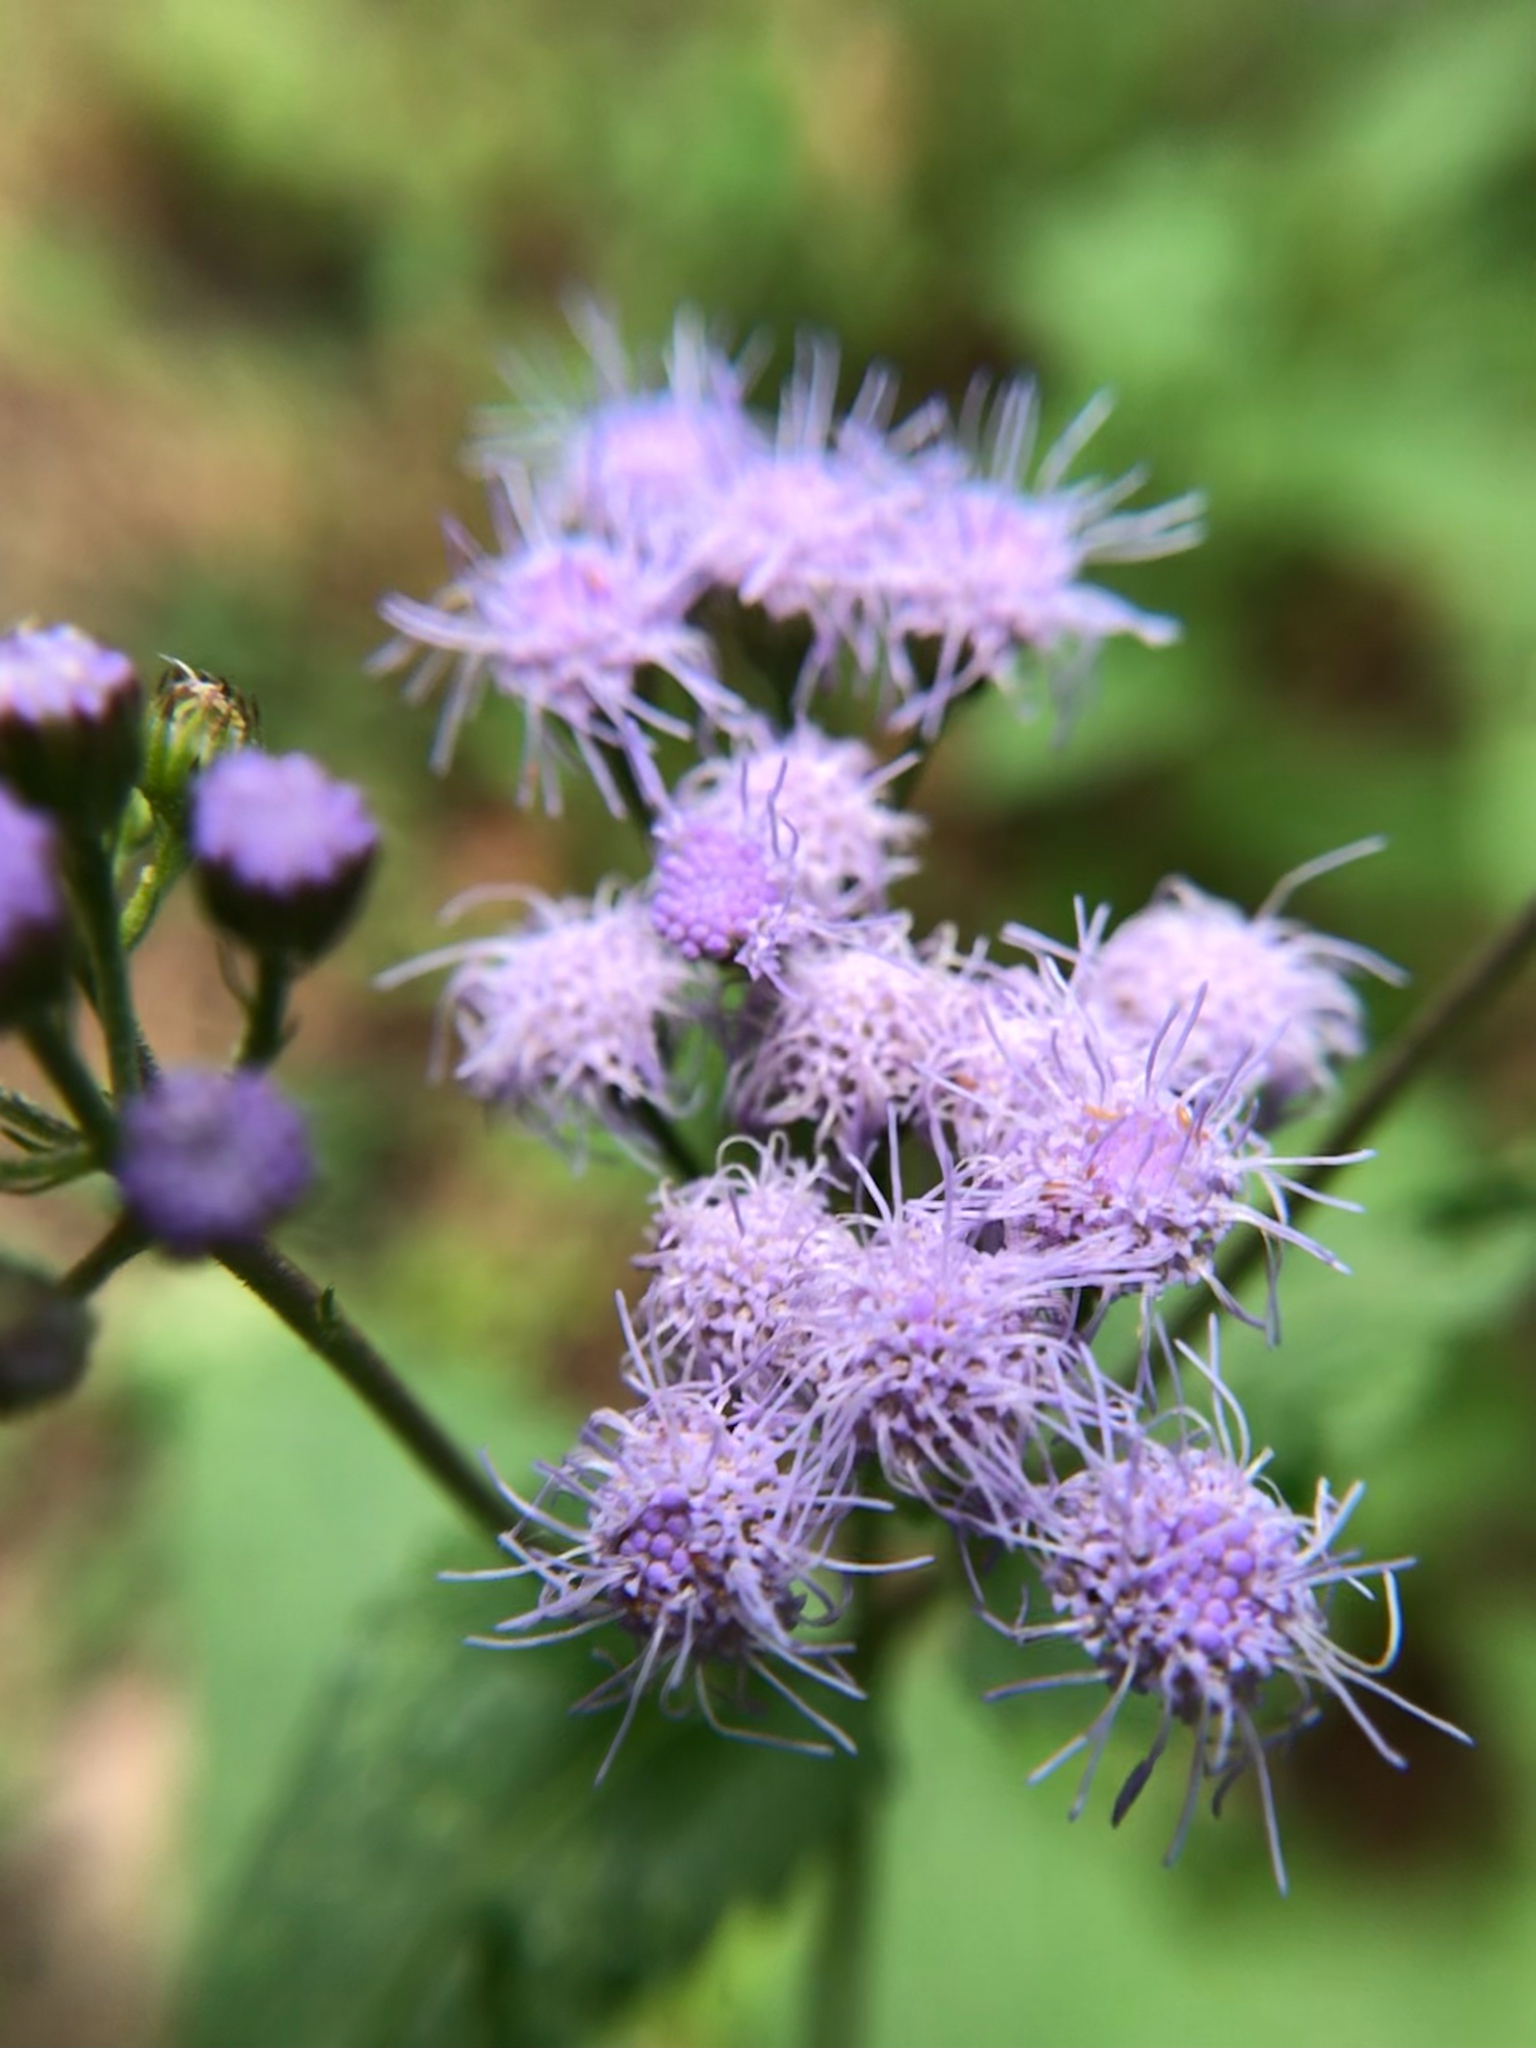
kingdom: Plantae
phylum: Tracheophyta
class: Magnoliopsida
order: Asterales
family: Asteraceae
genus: Conoclinium
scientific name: Conoclinium coelestinum
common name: Blue mistflower
